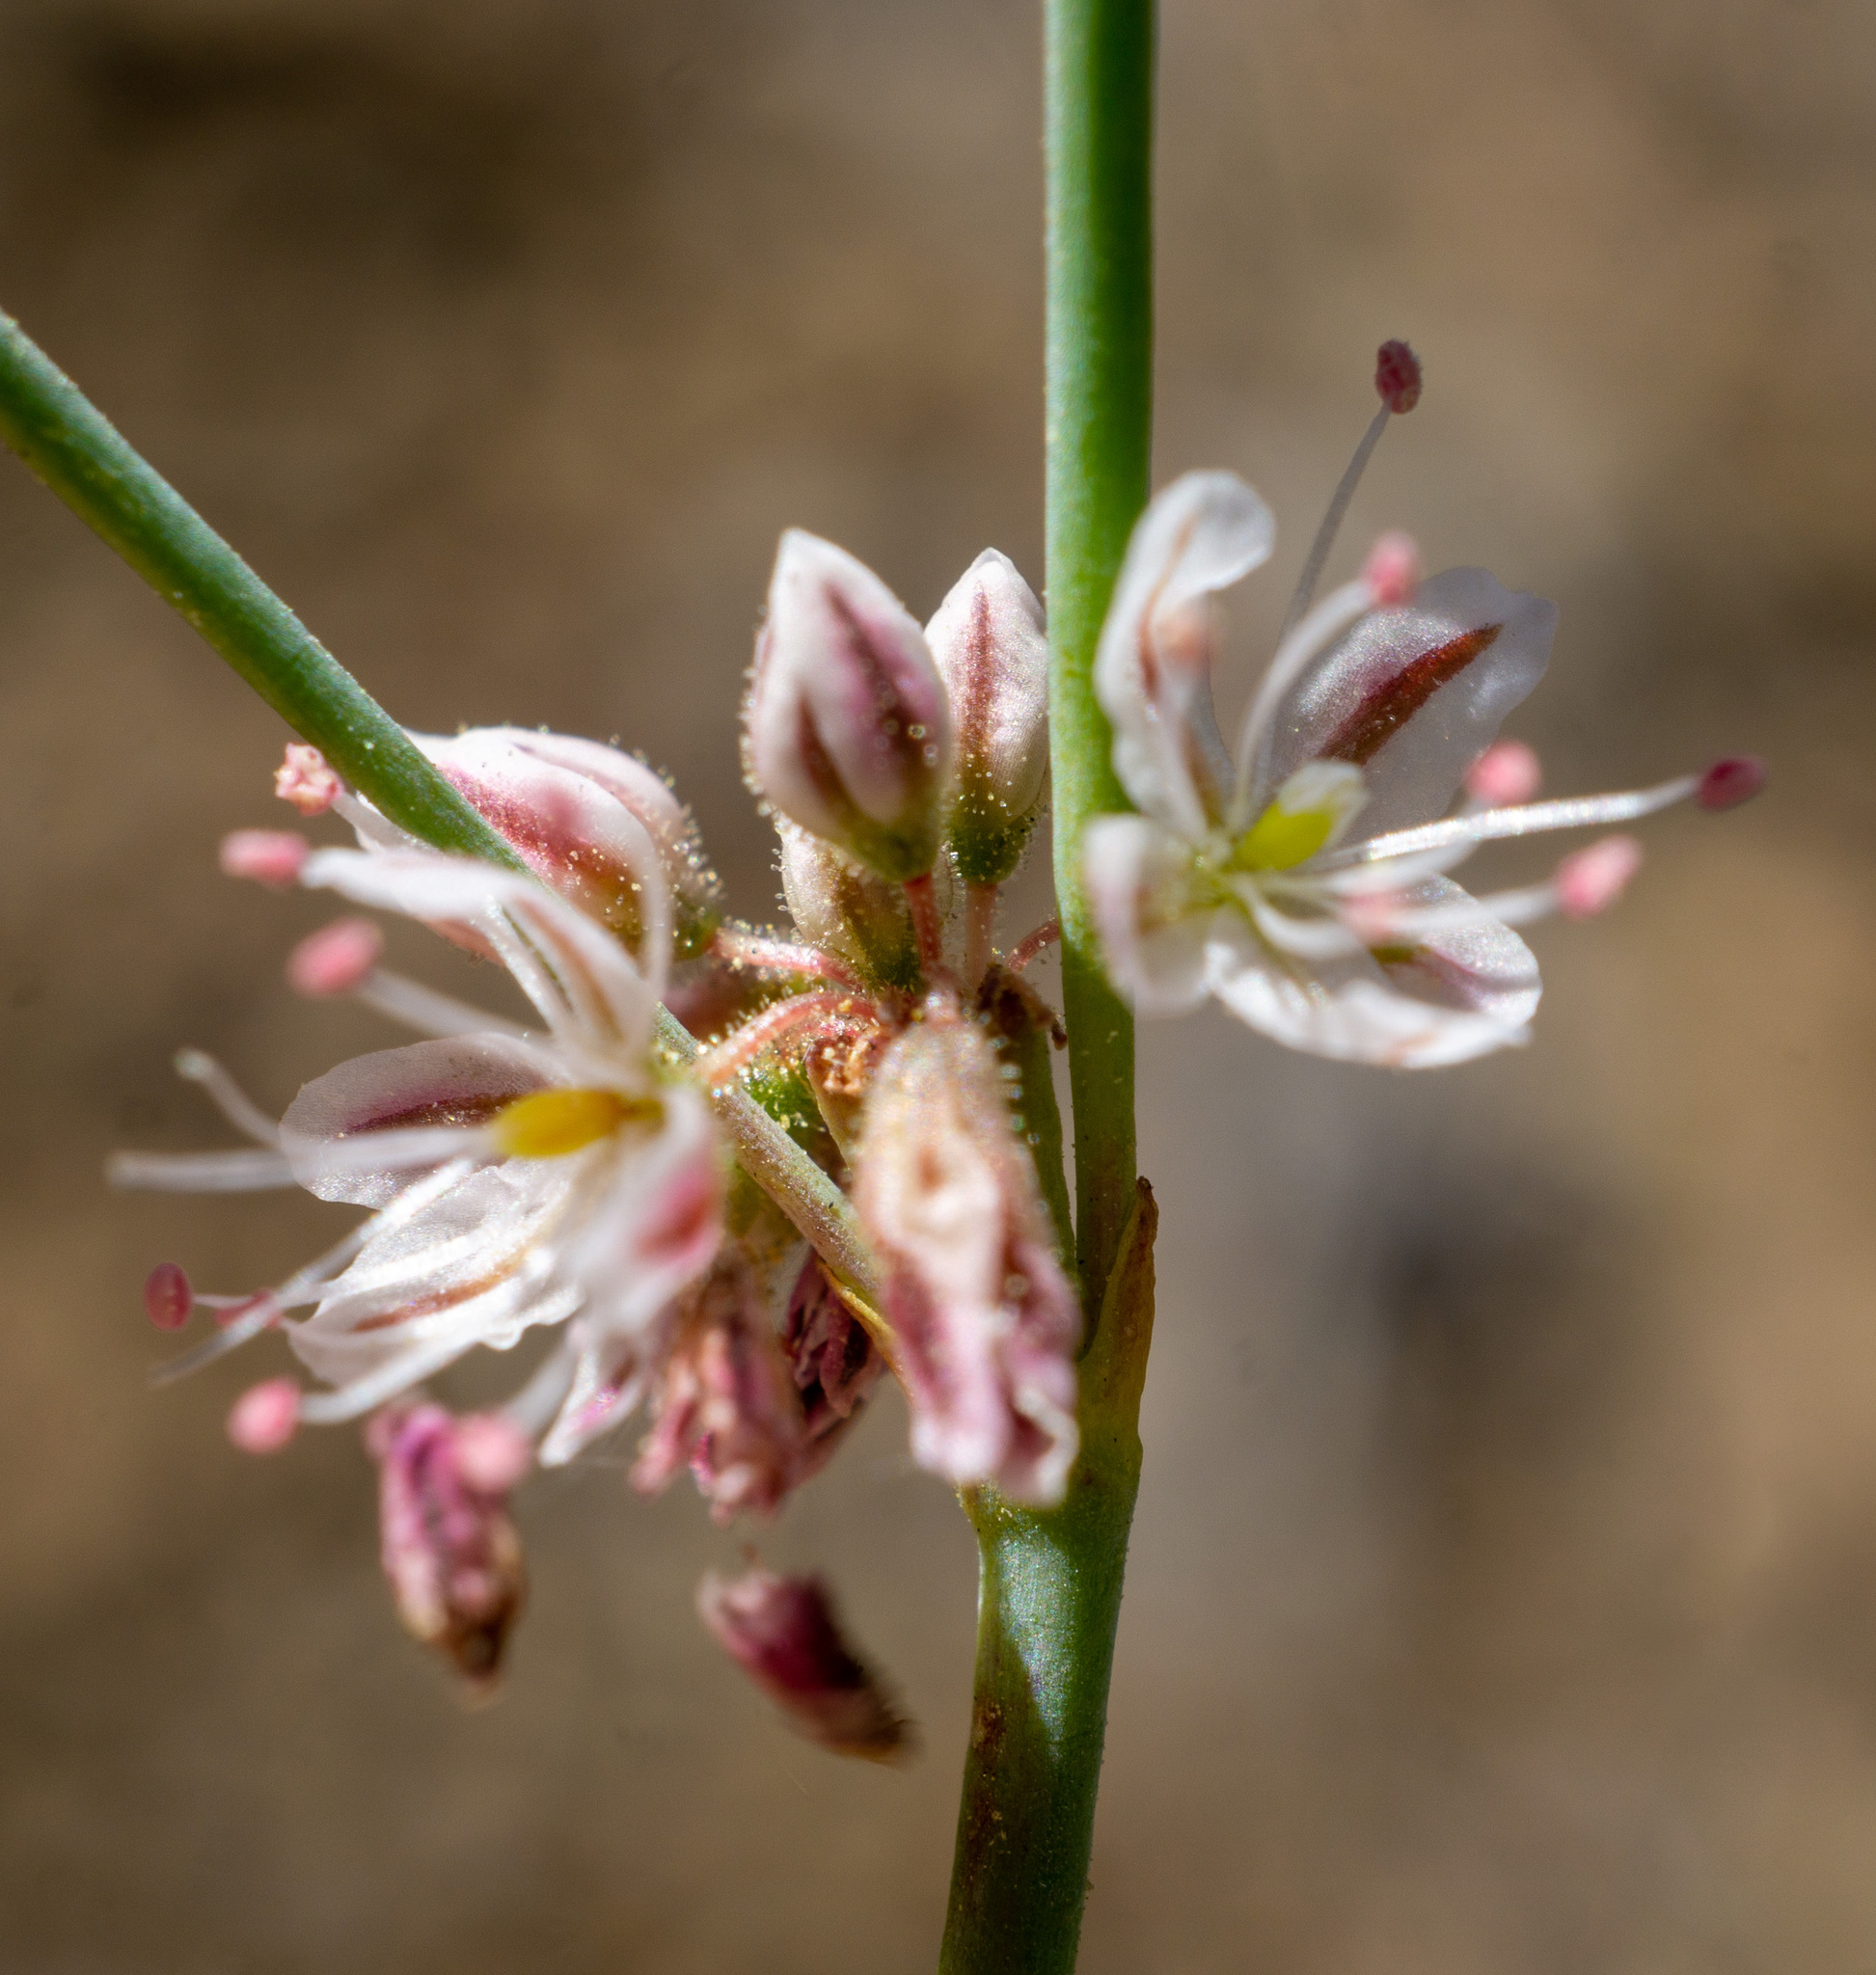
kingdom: Plantae
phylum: Tracheophyta
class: Magnoliopsida
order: Caryophyllales
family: Polygonaceae
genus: Eriogonum
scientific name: Eriogonum covilleanum
